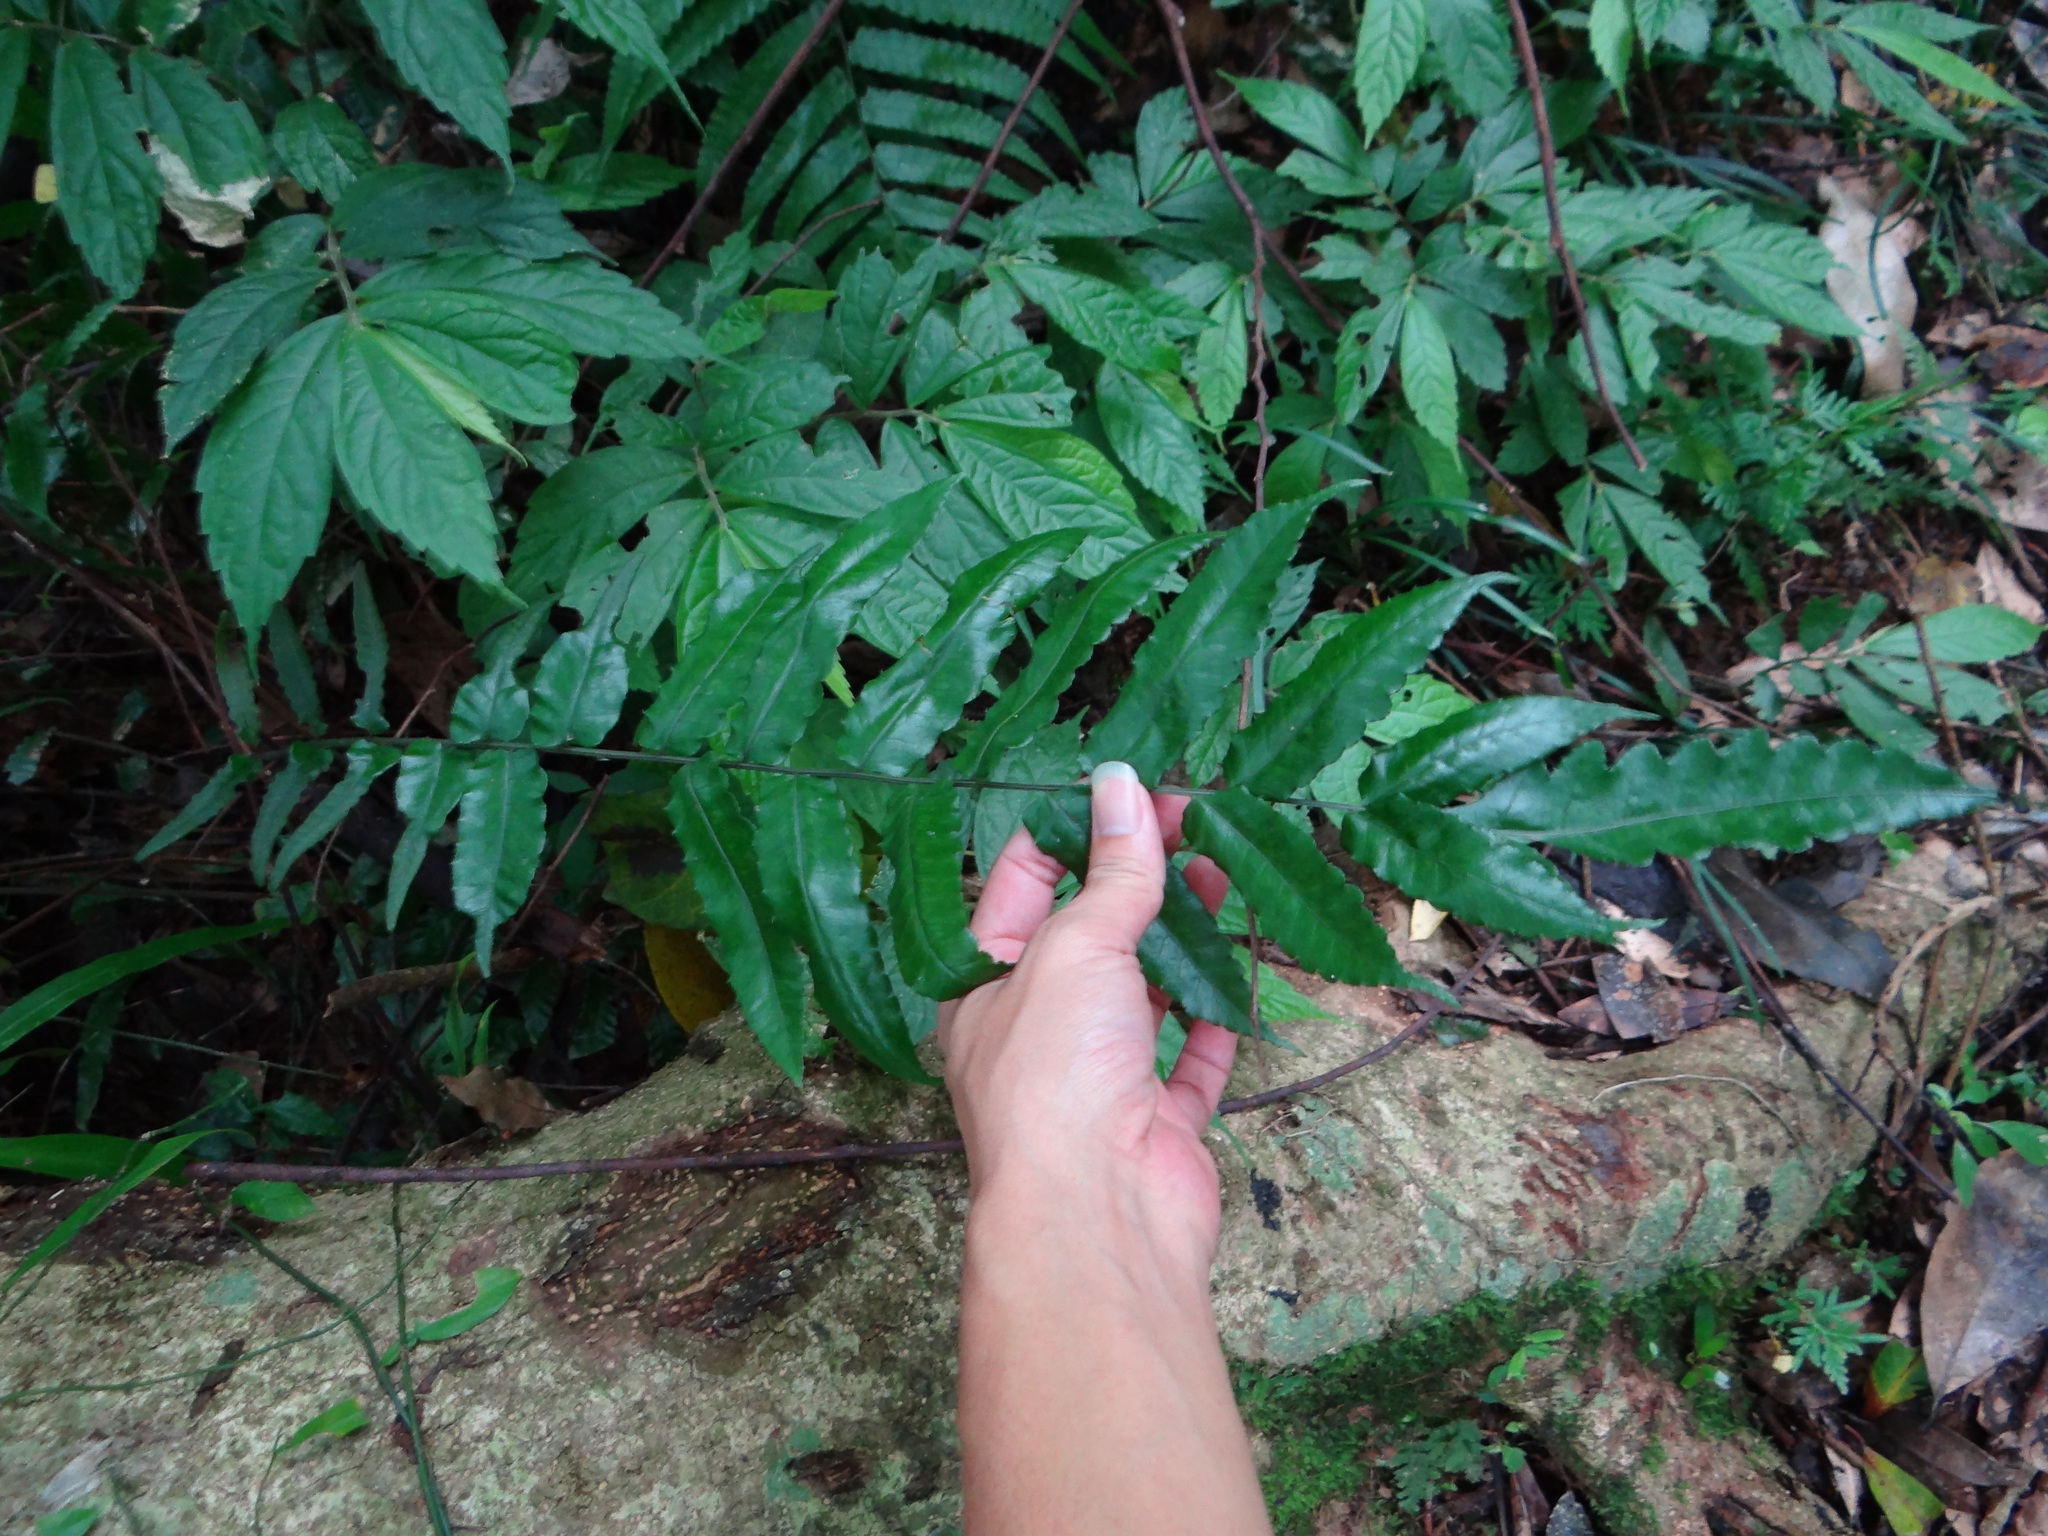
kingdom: Plantae
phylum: Tracheophyta
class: Polypodiopsida
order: Polypodiales
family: Dryopteridaceae
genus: Bolbitis
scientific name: Bolbitis subcordata
